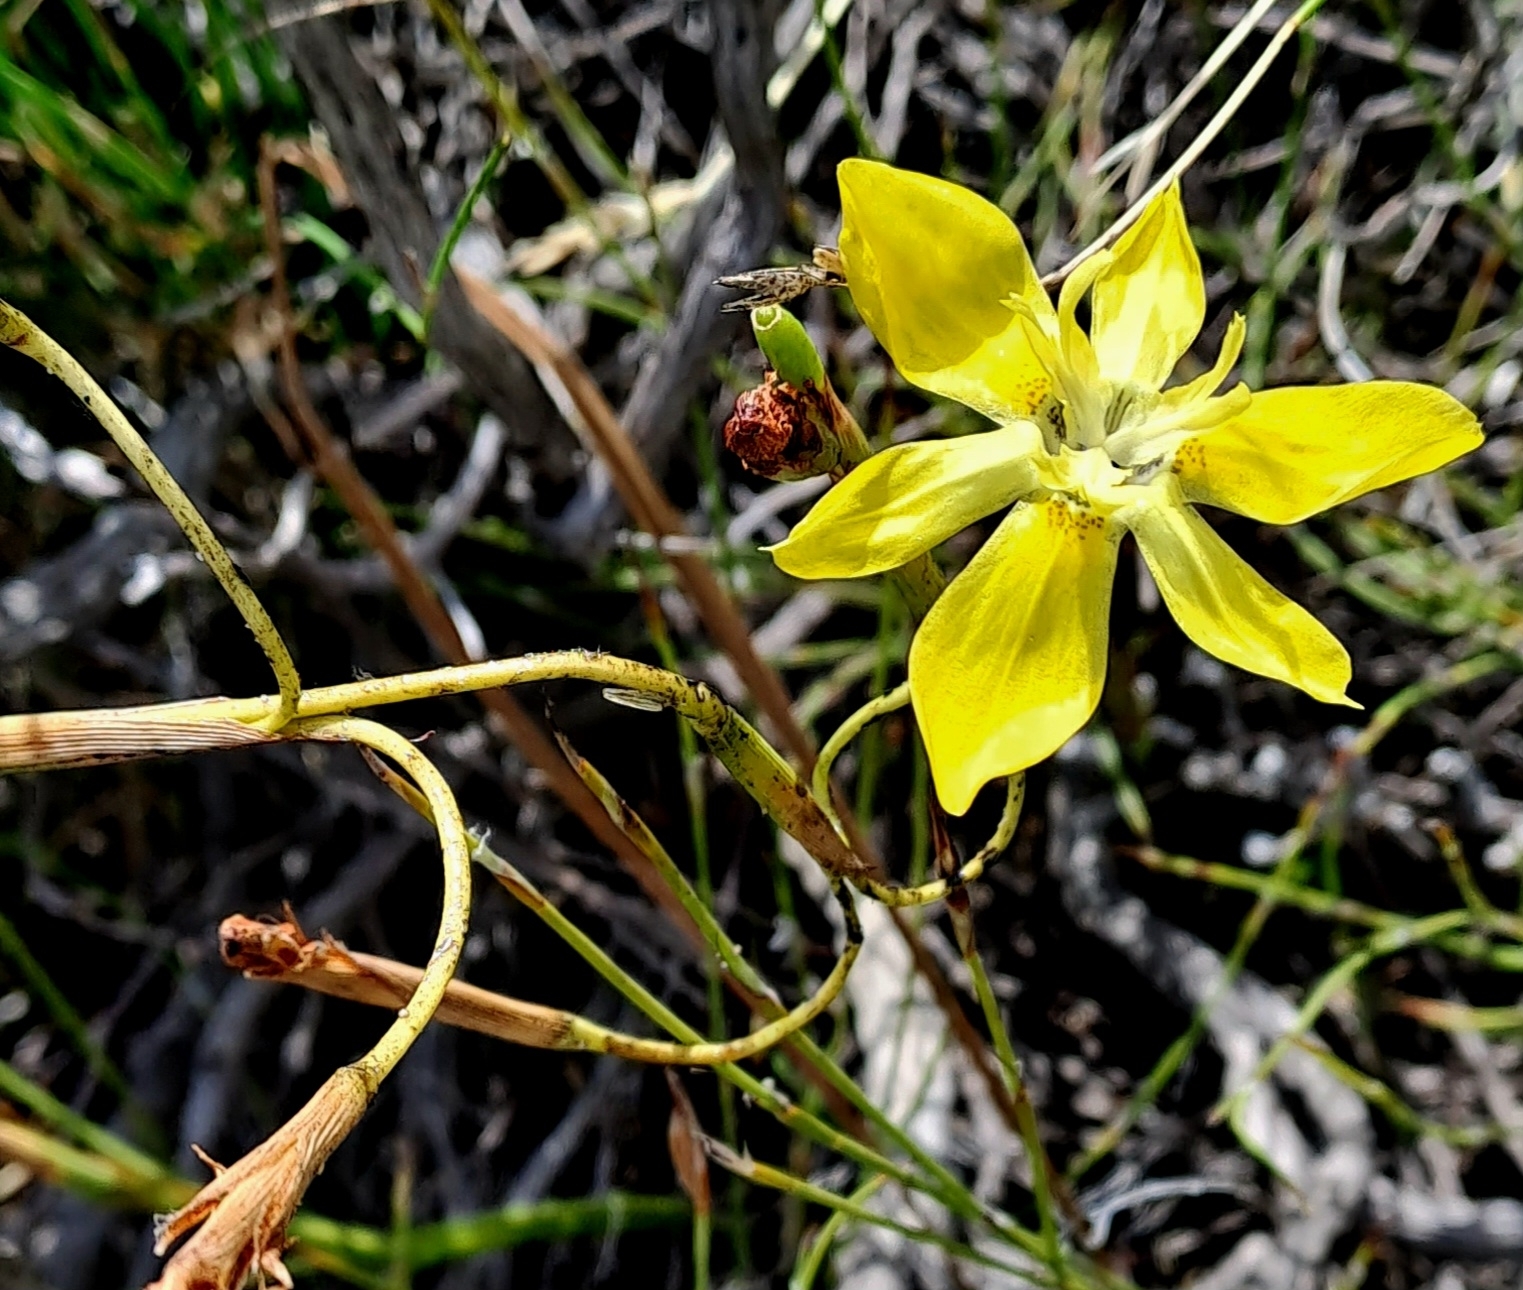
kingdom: Plantae
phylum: Tracheophyta
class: Liliopsida
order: Asparagales
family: Iridaceae
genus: Moraea
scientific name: Moraea bituminosa
